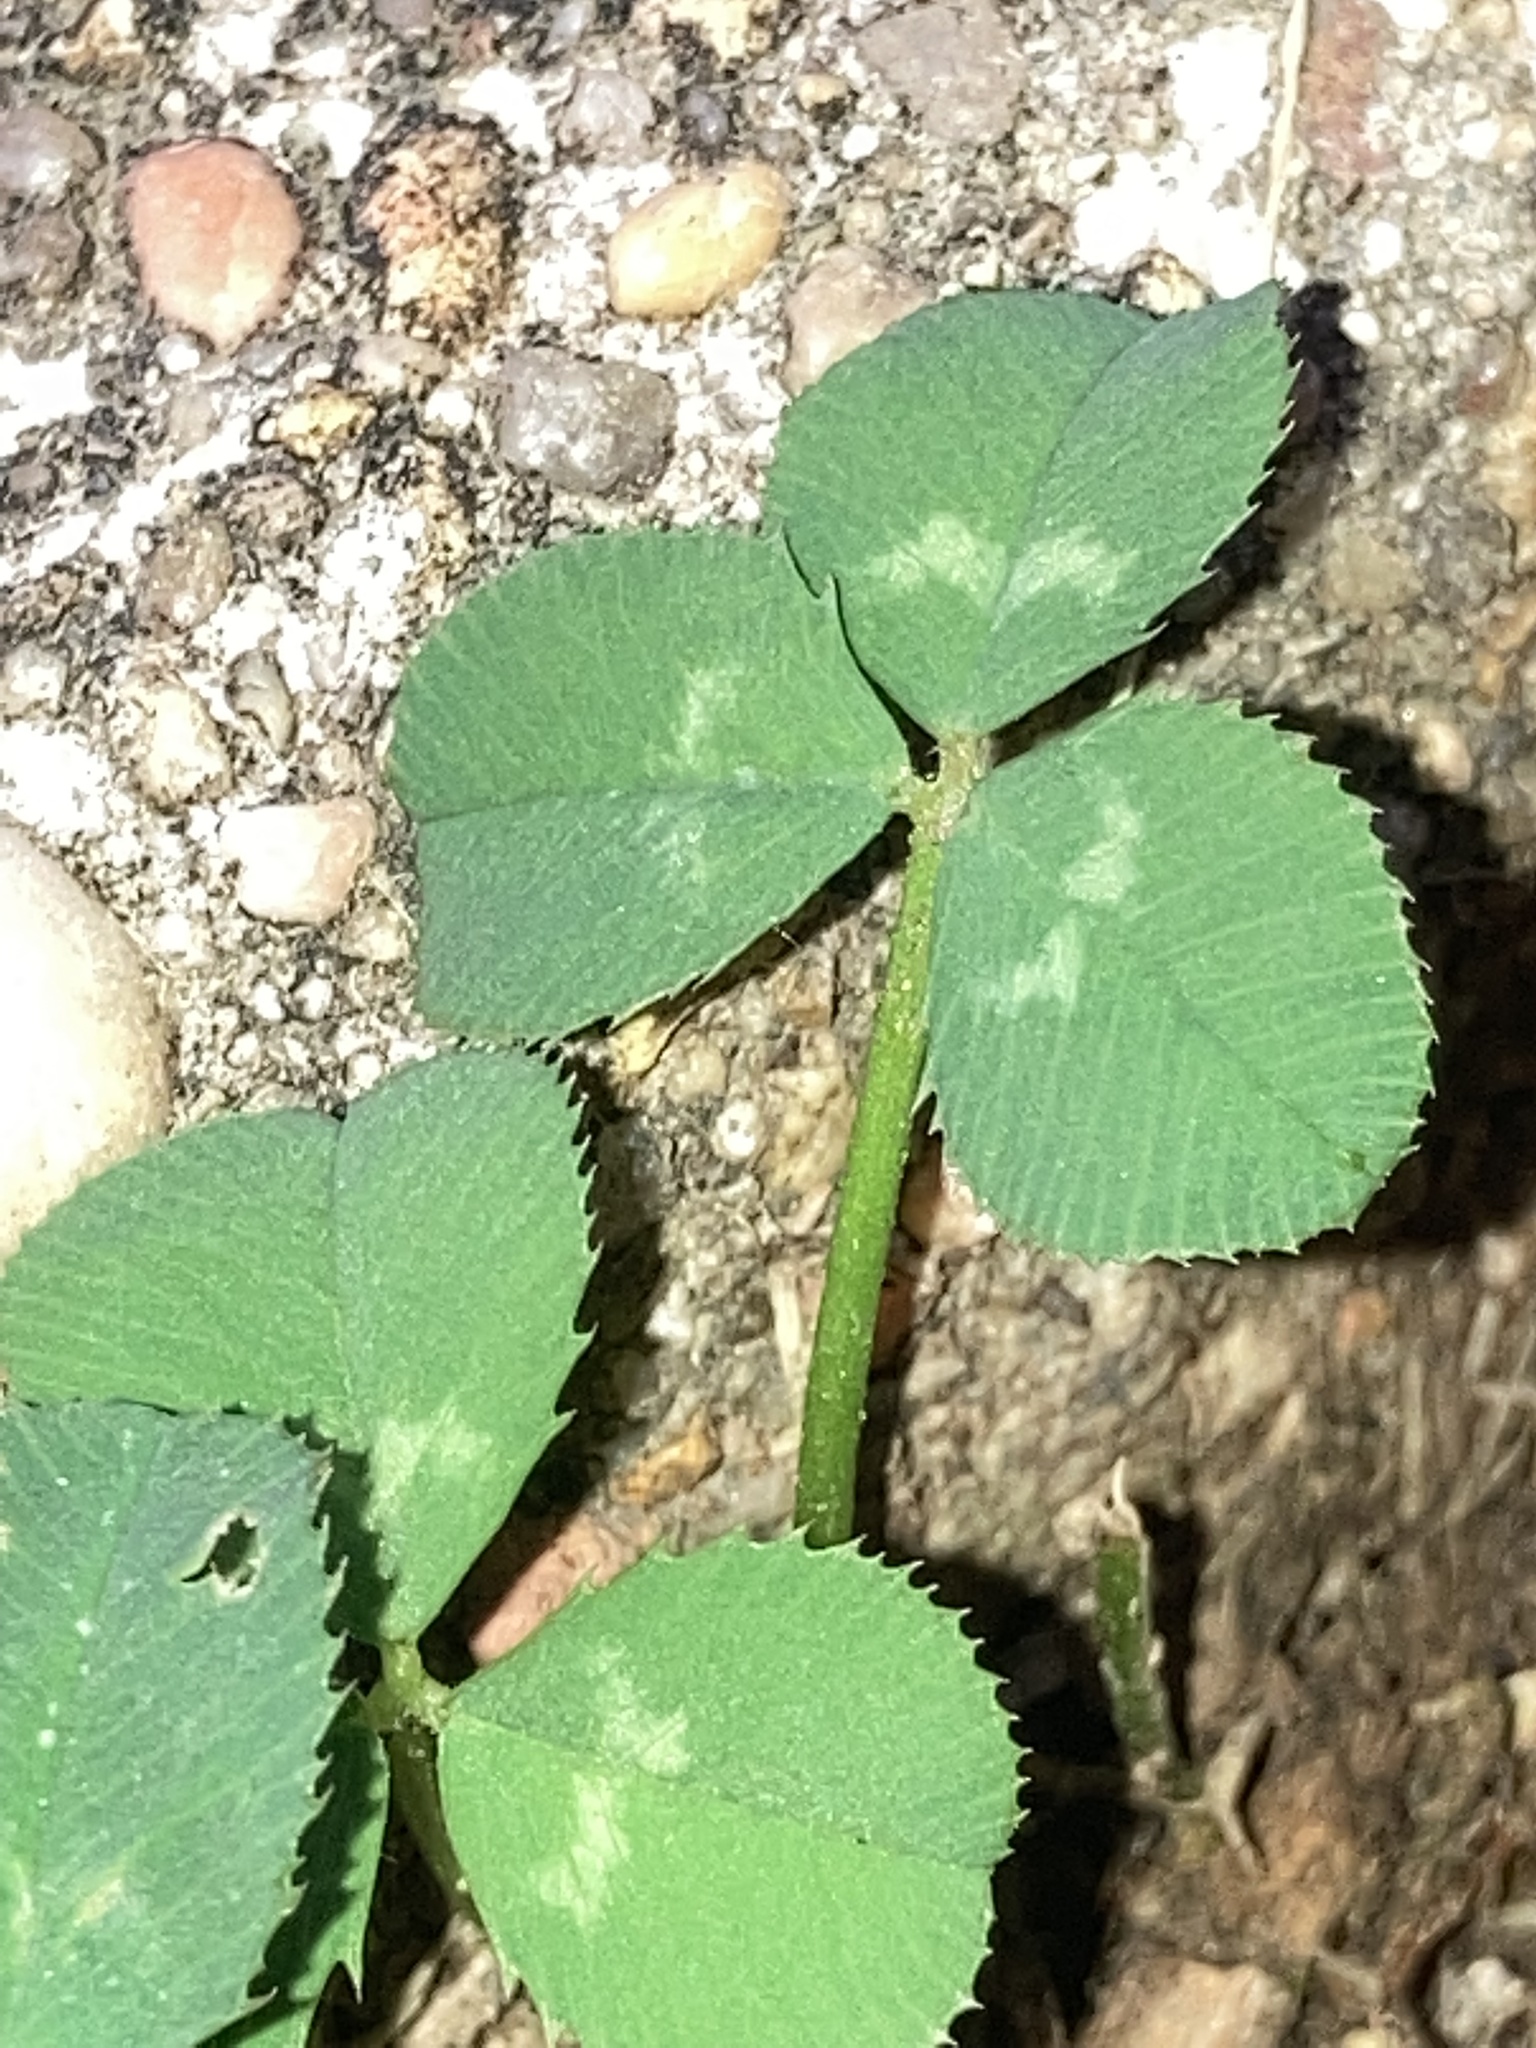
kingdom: Plantae
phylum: Tracheophyta
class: Magnoliopsida
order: Fabales
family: Fabaceae
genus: Trifolium
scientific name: Trifolium repens
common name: White clover
